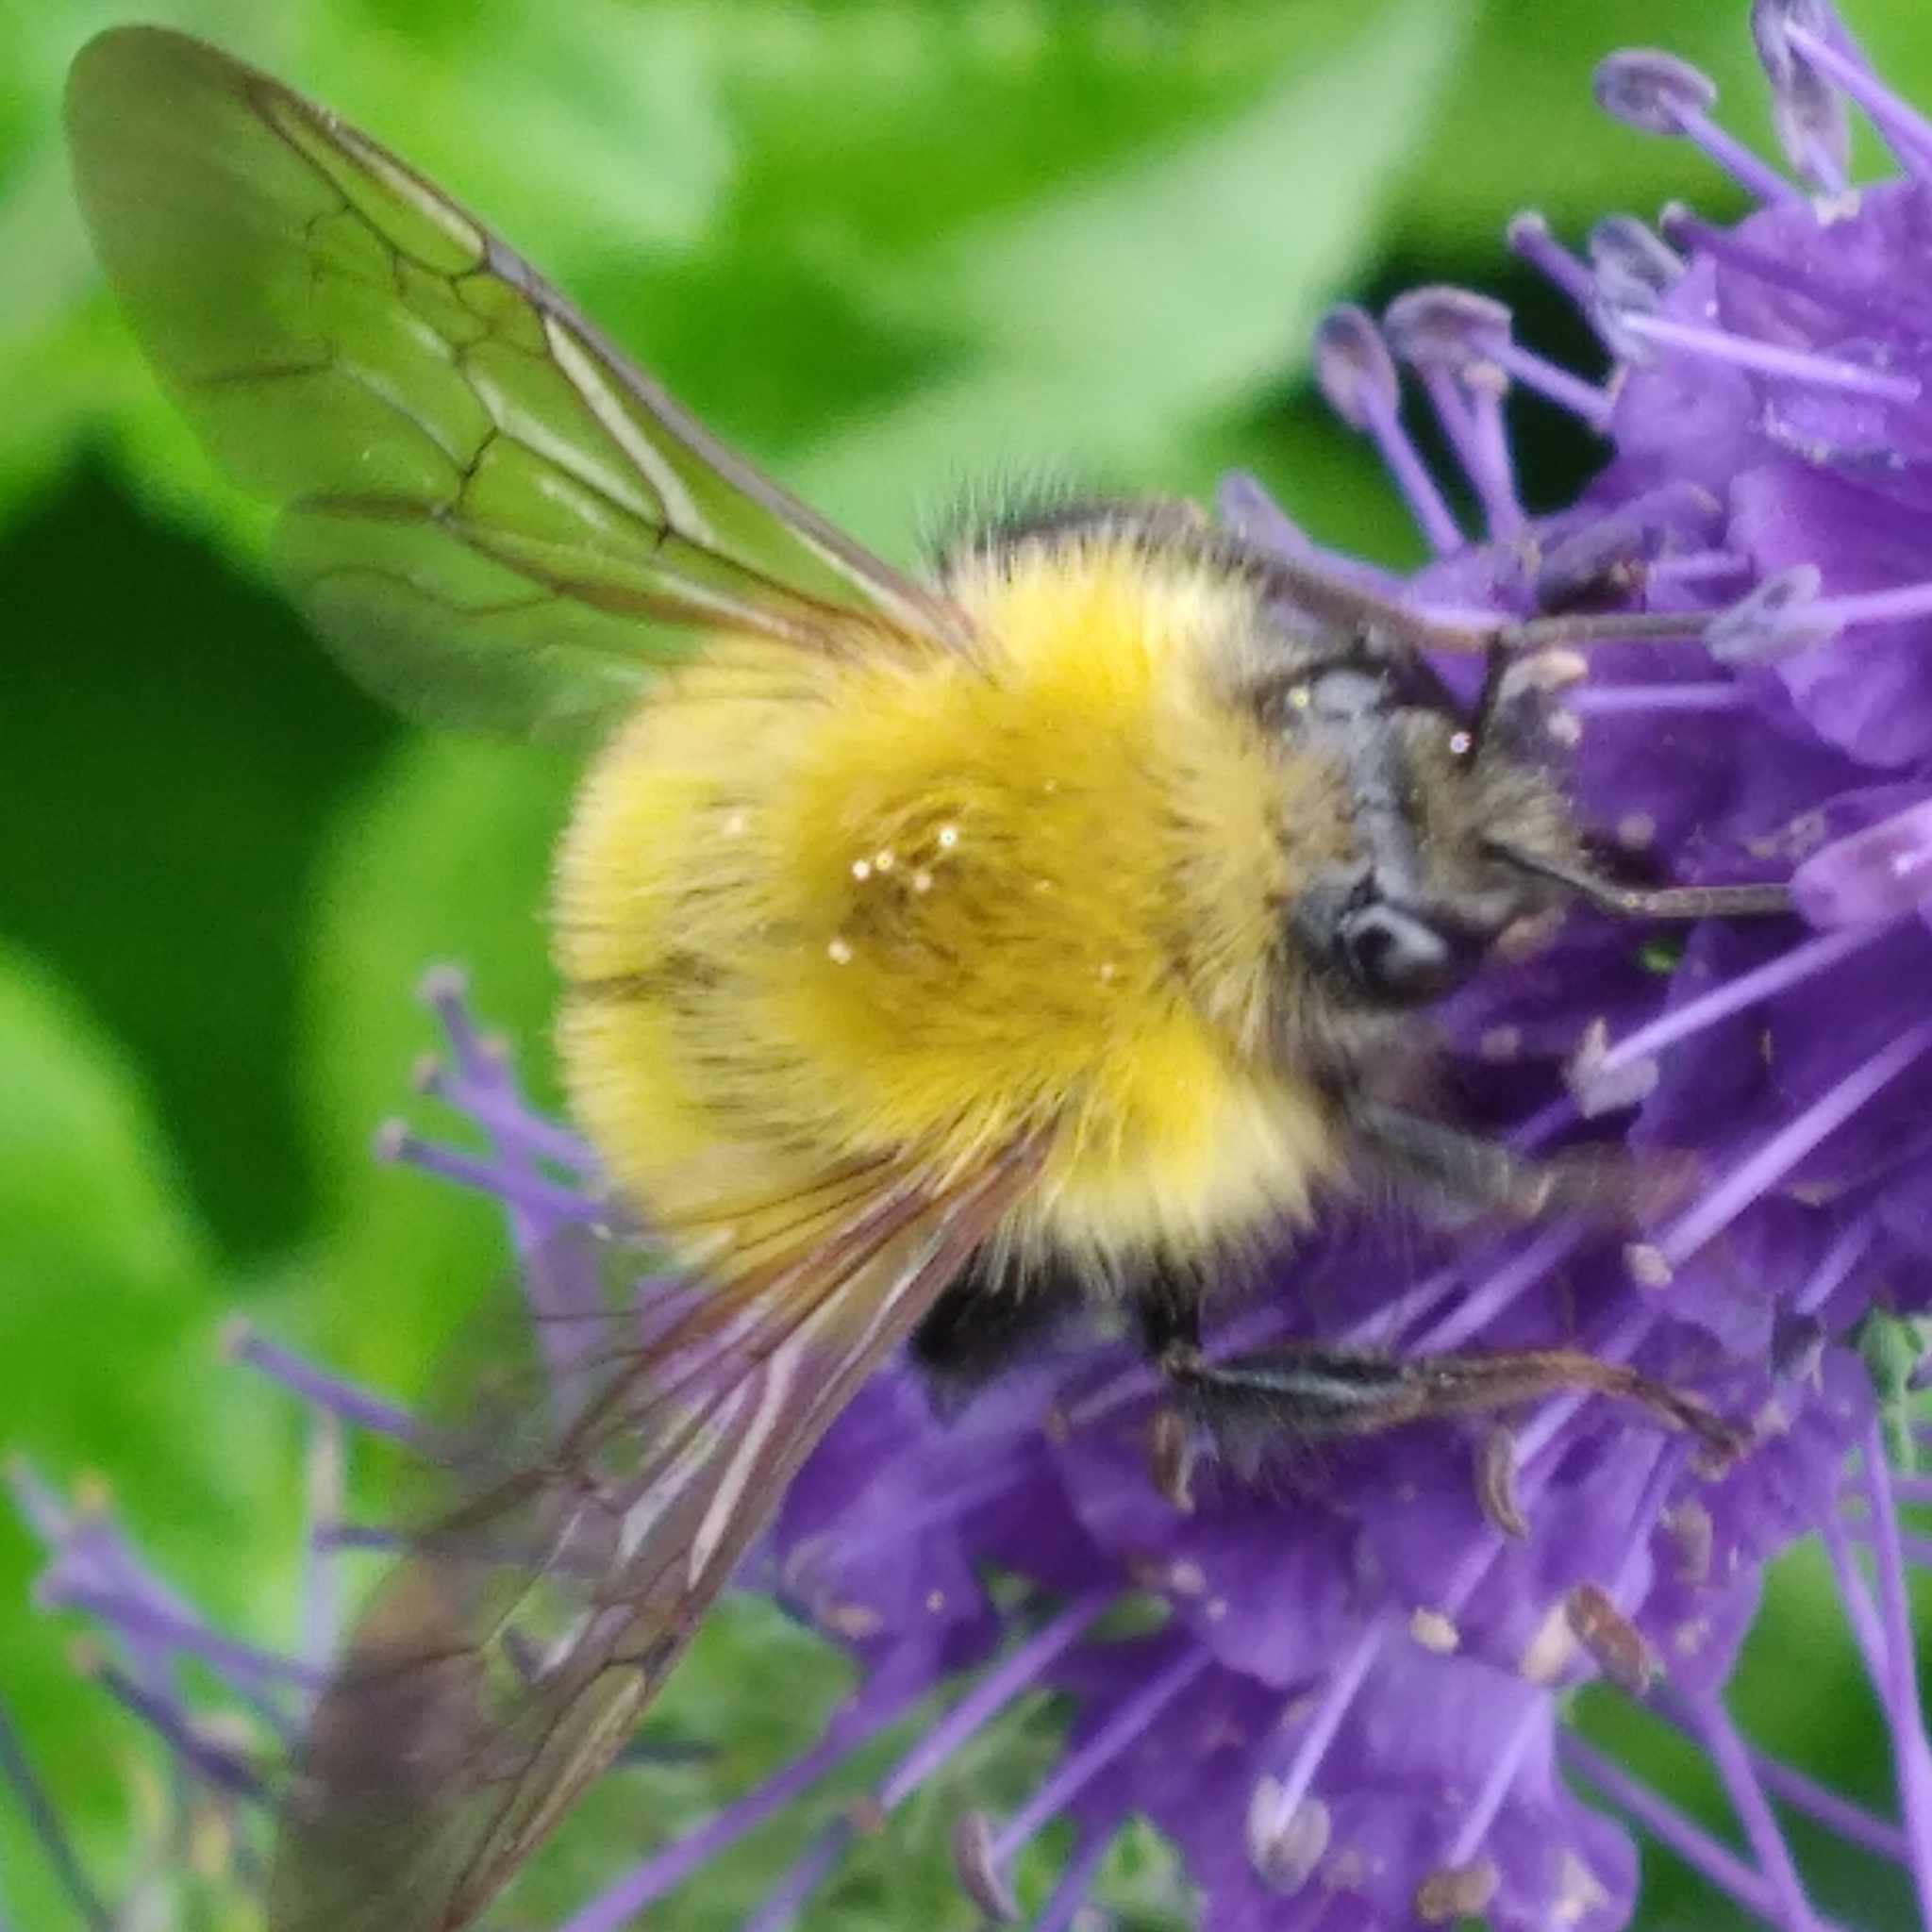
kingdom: Animalia
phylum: Arthropoda
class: Insecta
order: Hymenoptera
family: Apidae
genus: Bombus
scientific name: Bombus perplexus
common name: Confusing bumble bee
